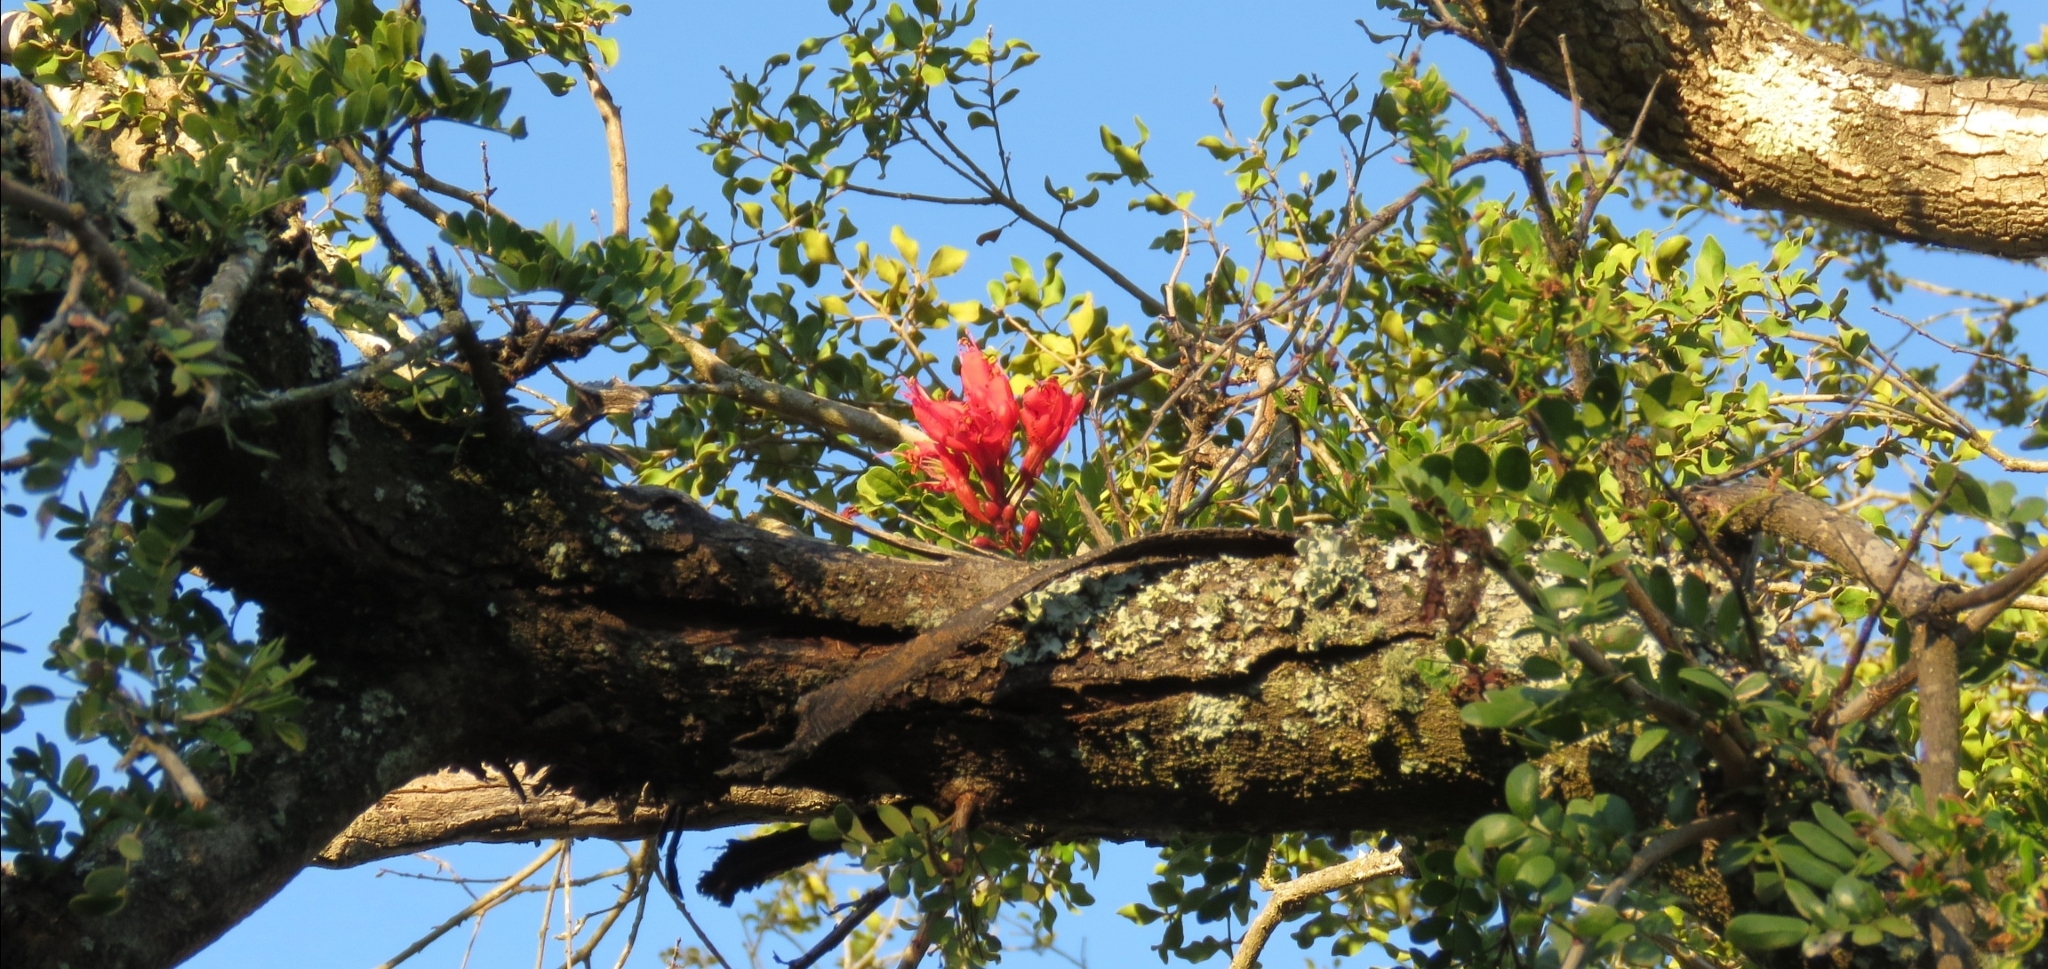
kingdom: Plantae
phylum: Tracheophyta
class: Magnoliopsida
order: Fabales
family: Fabaceae
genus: Schotia
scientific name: Schotia afra
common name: Hottentot's bean
